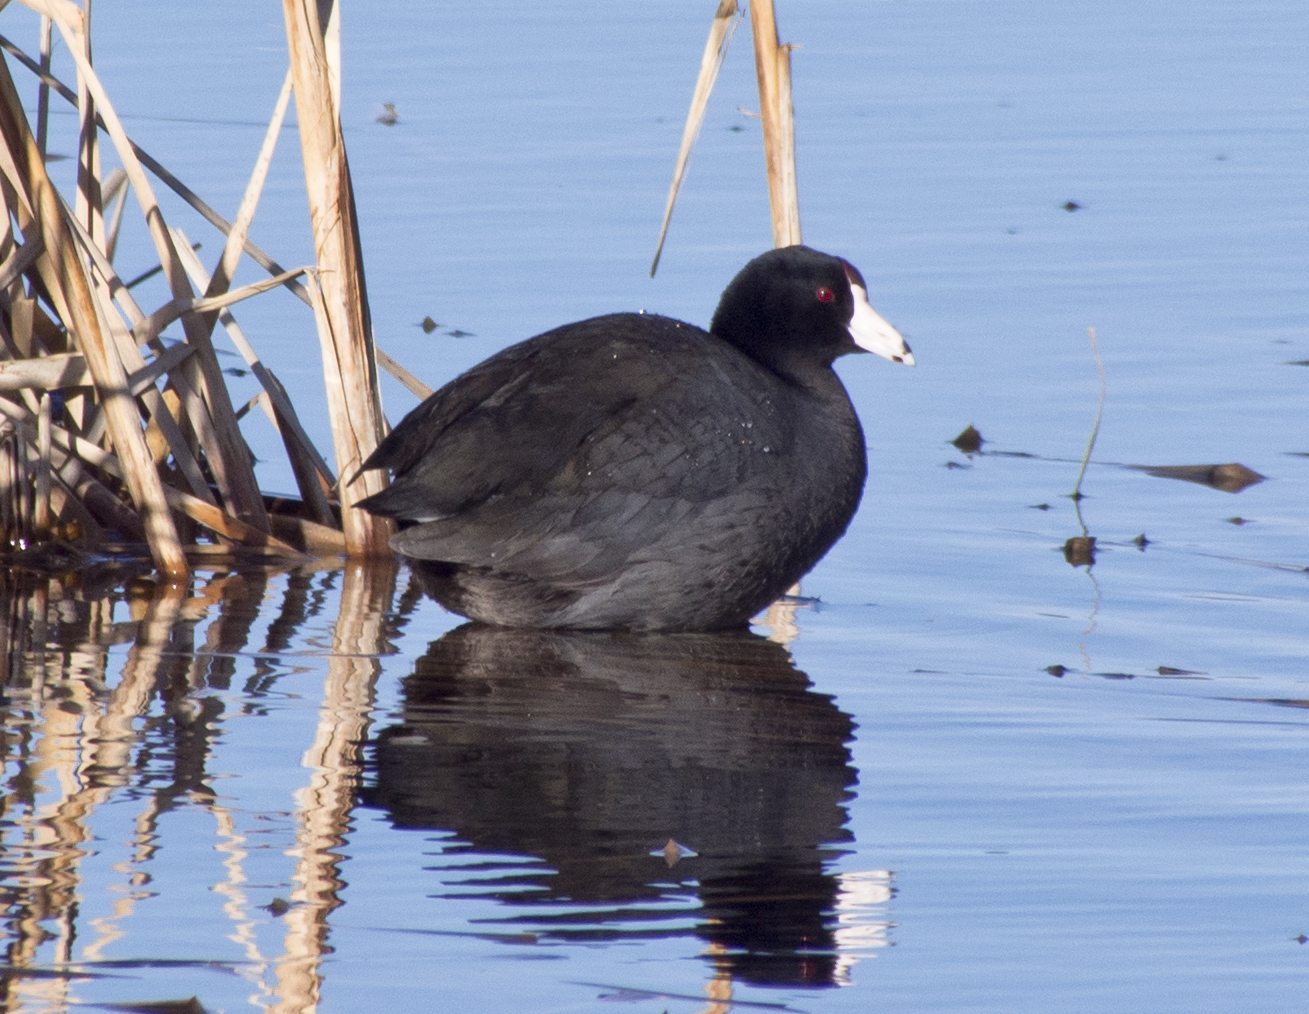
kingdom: Animalia
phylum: Chordata
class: Aves
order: Gruiformes
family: Rallidae
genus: Fulica
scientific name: Fulica americana
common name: American coot
